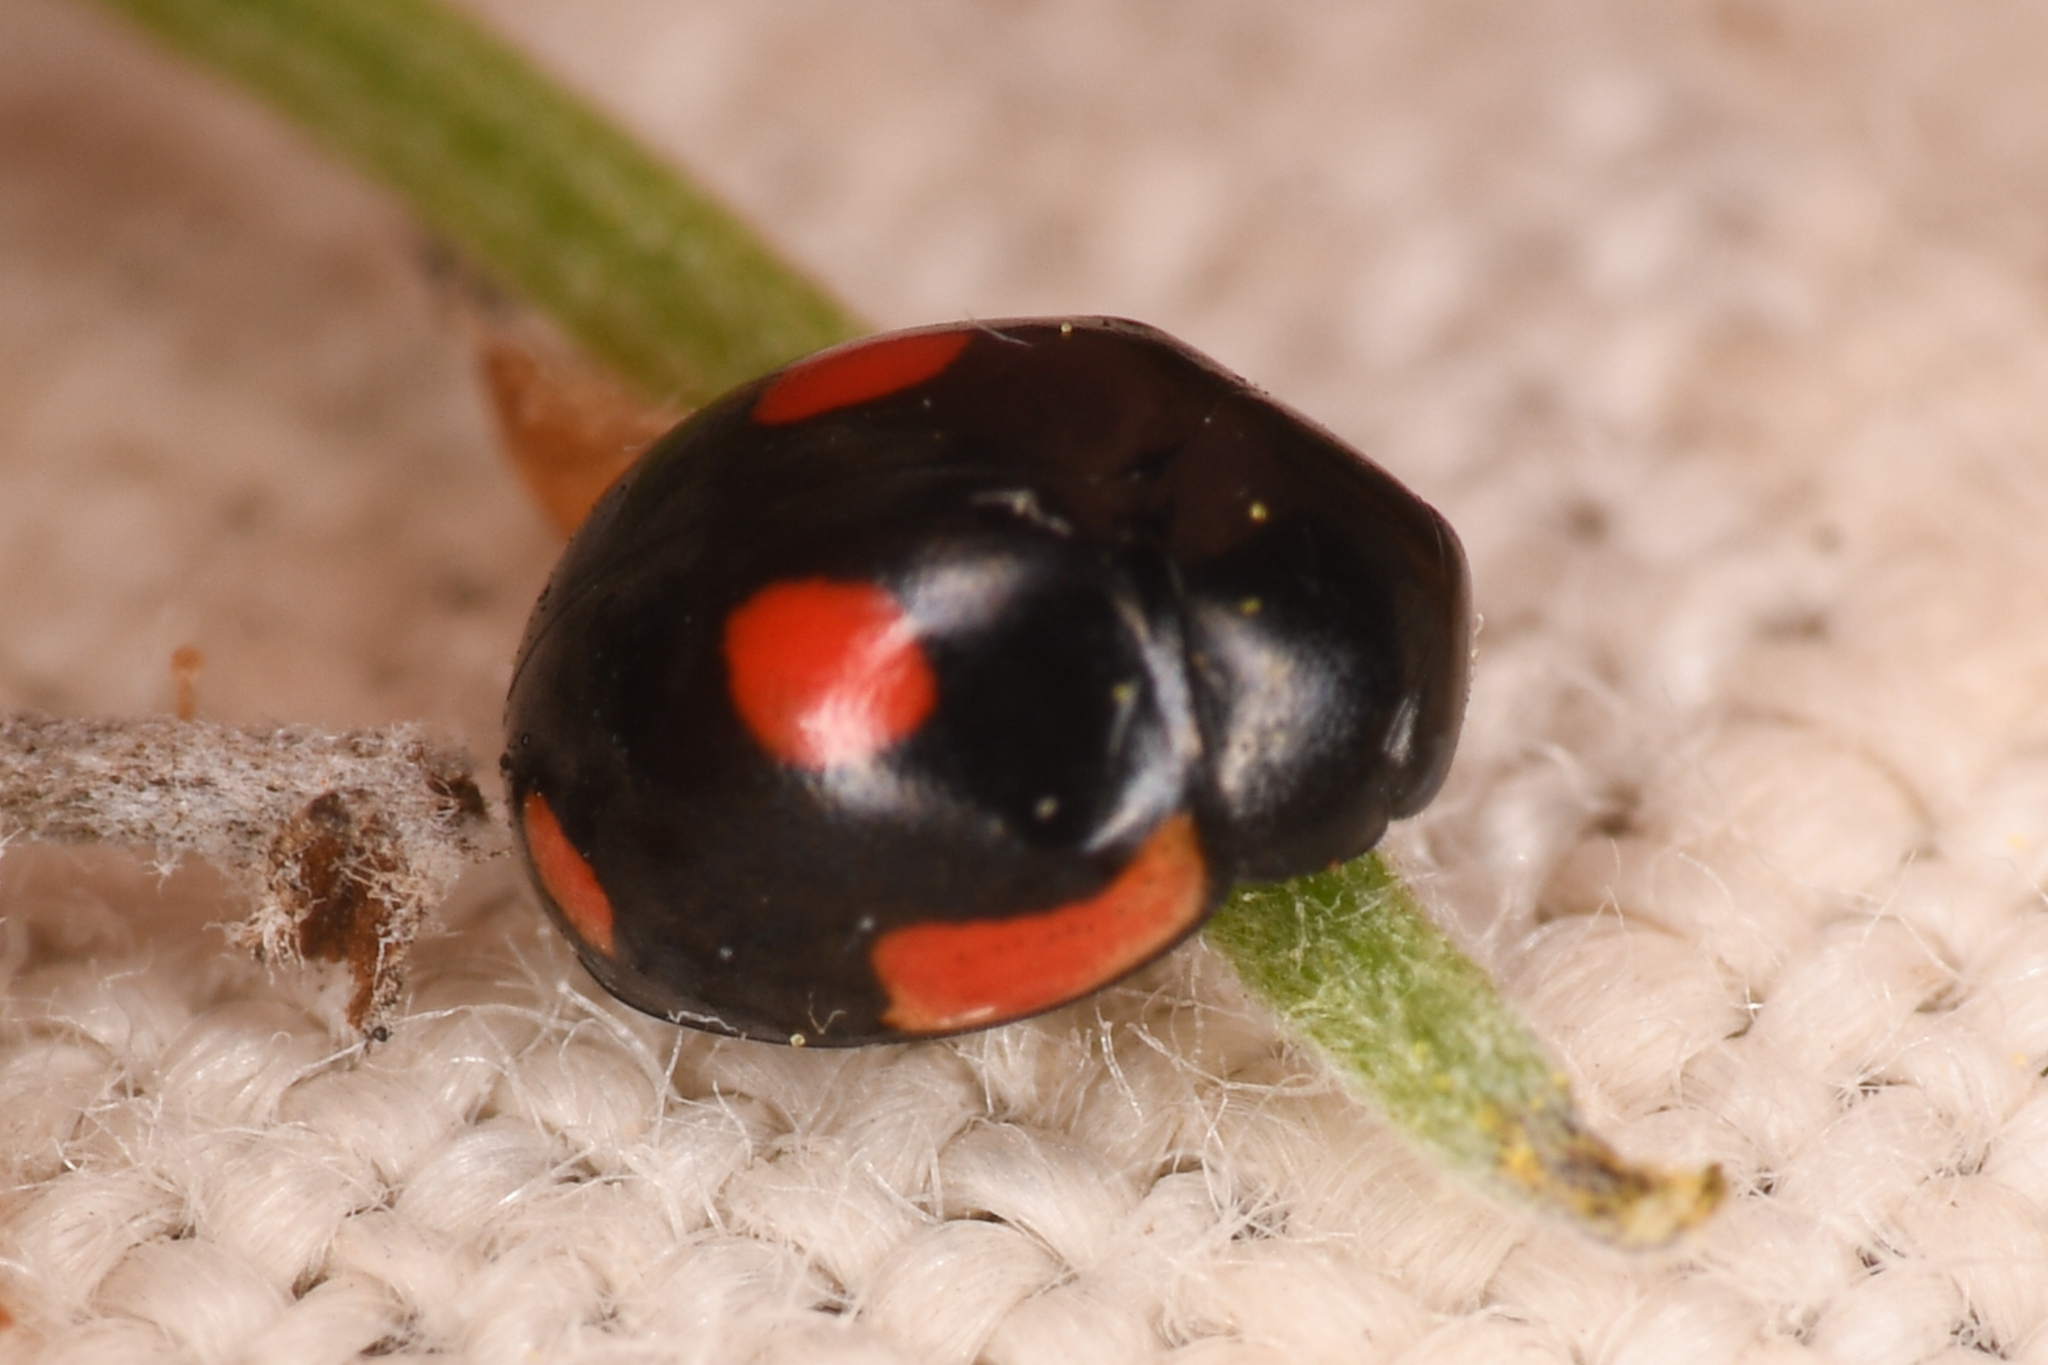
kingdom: Animalia
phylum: Arthropoda
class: Insecta
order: Coleoptera
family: Coccinellidae
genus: Hyperaspis
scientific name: Hyperaspis lateralis
